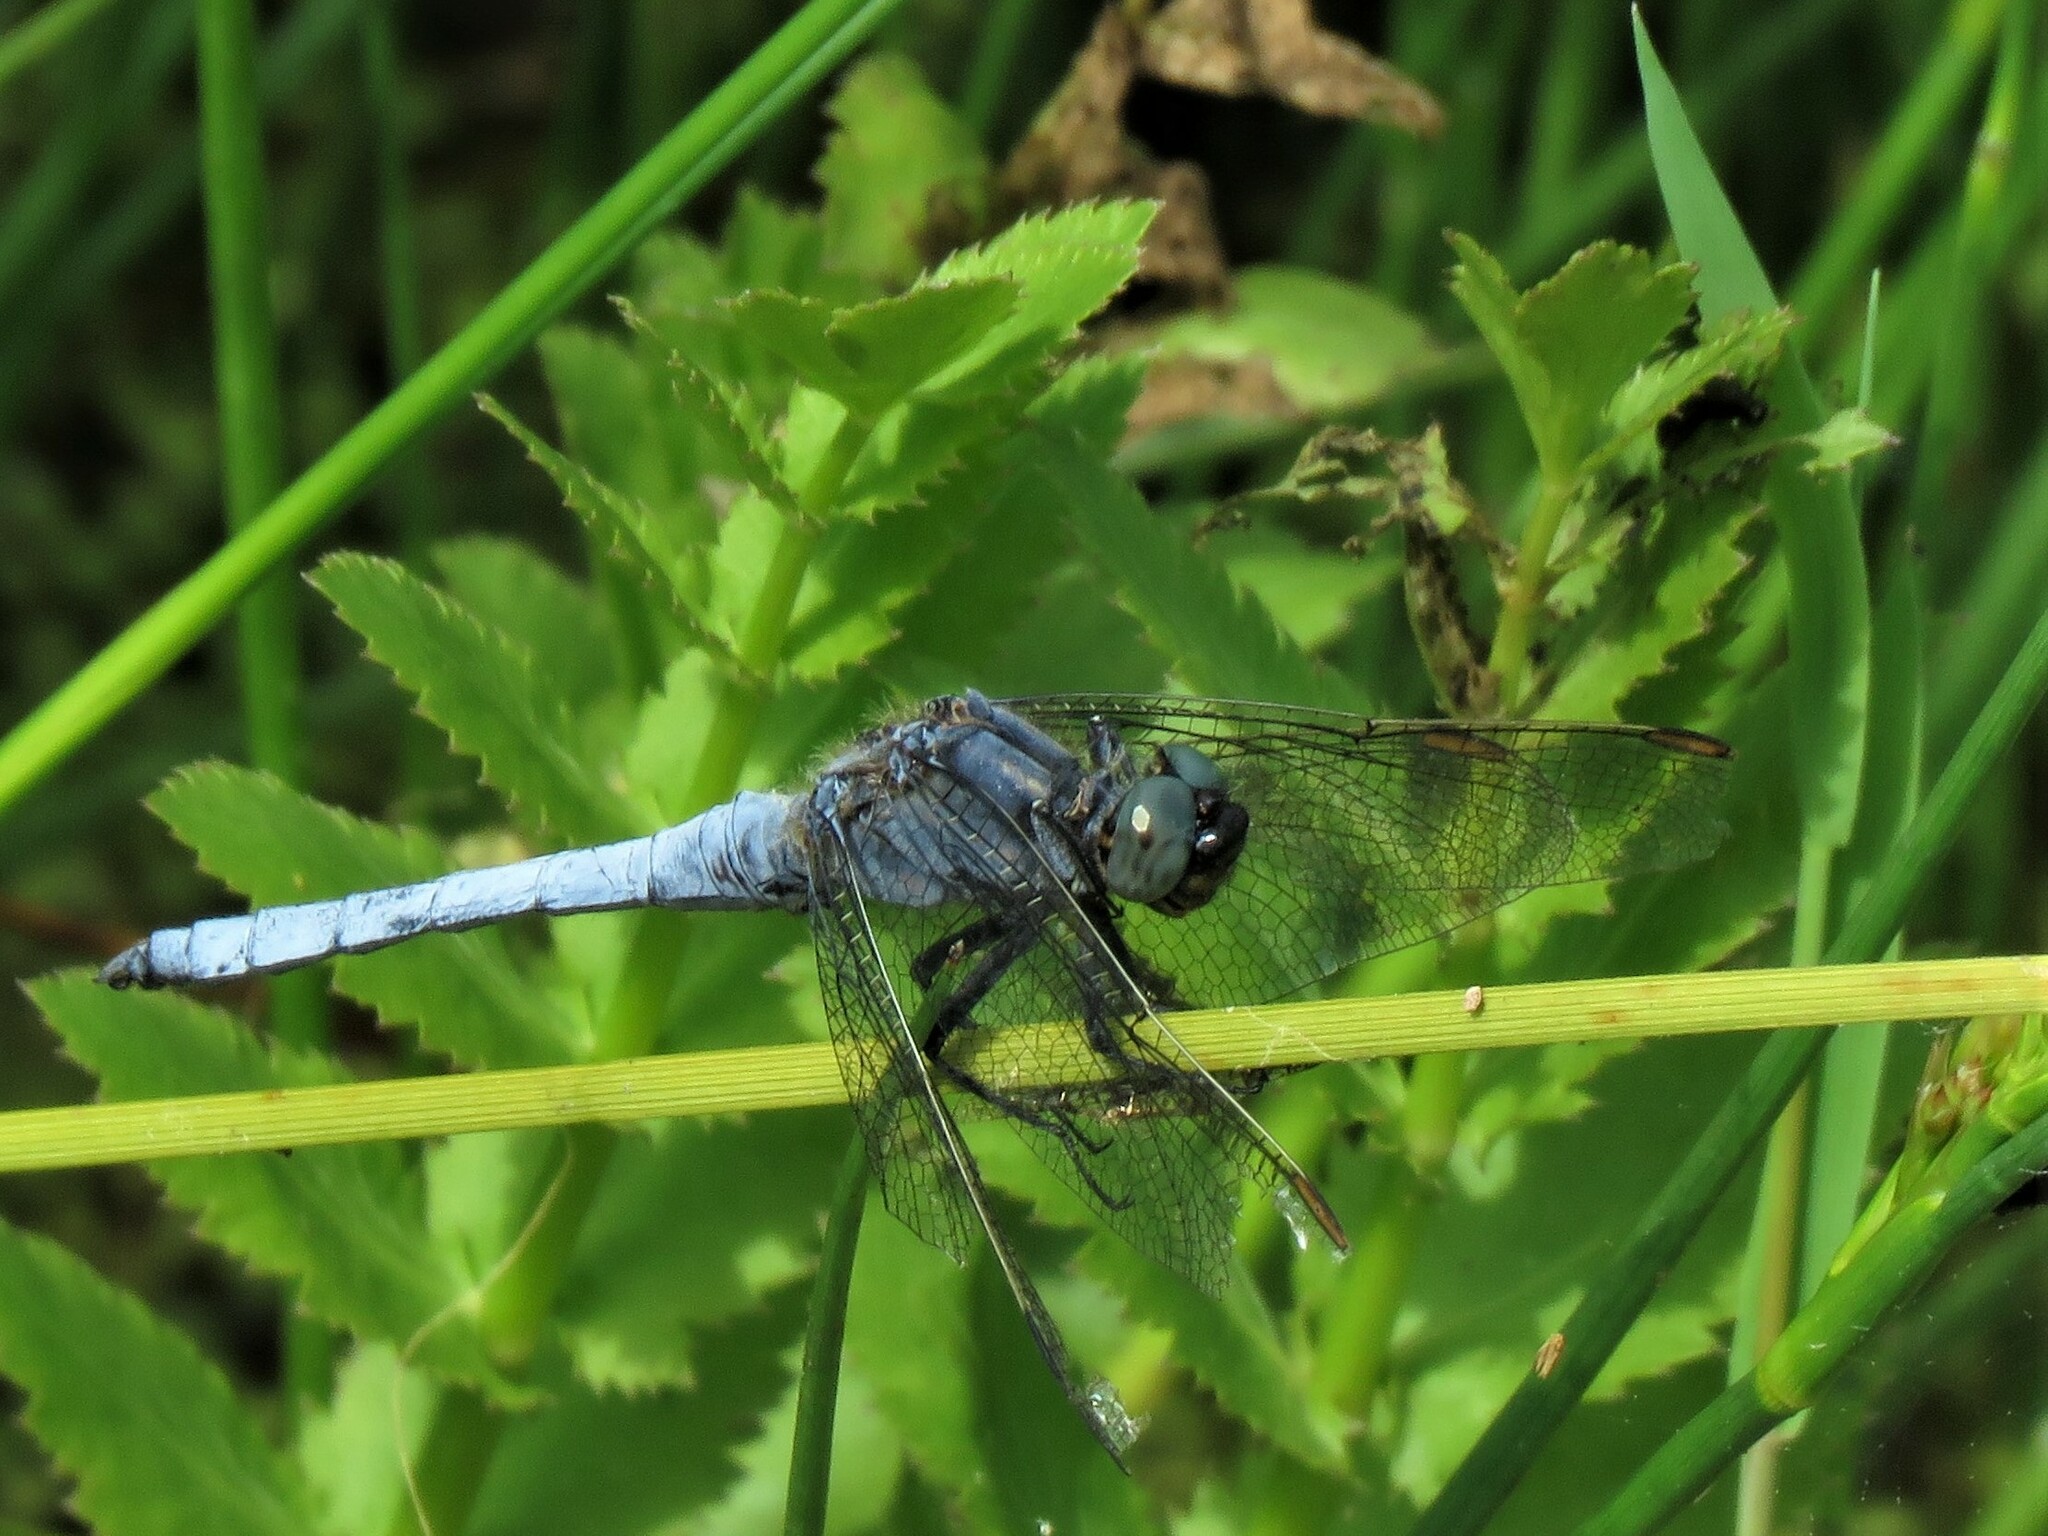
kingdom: Animalia
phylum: Arthropoda
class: Insecta
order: Odonata
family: Libellulidae
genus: Orthetrum
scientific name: Orthetrum coerulescens
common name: Keeled skimmer
